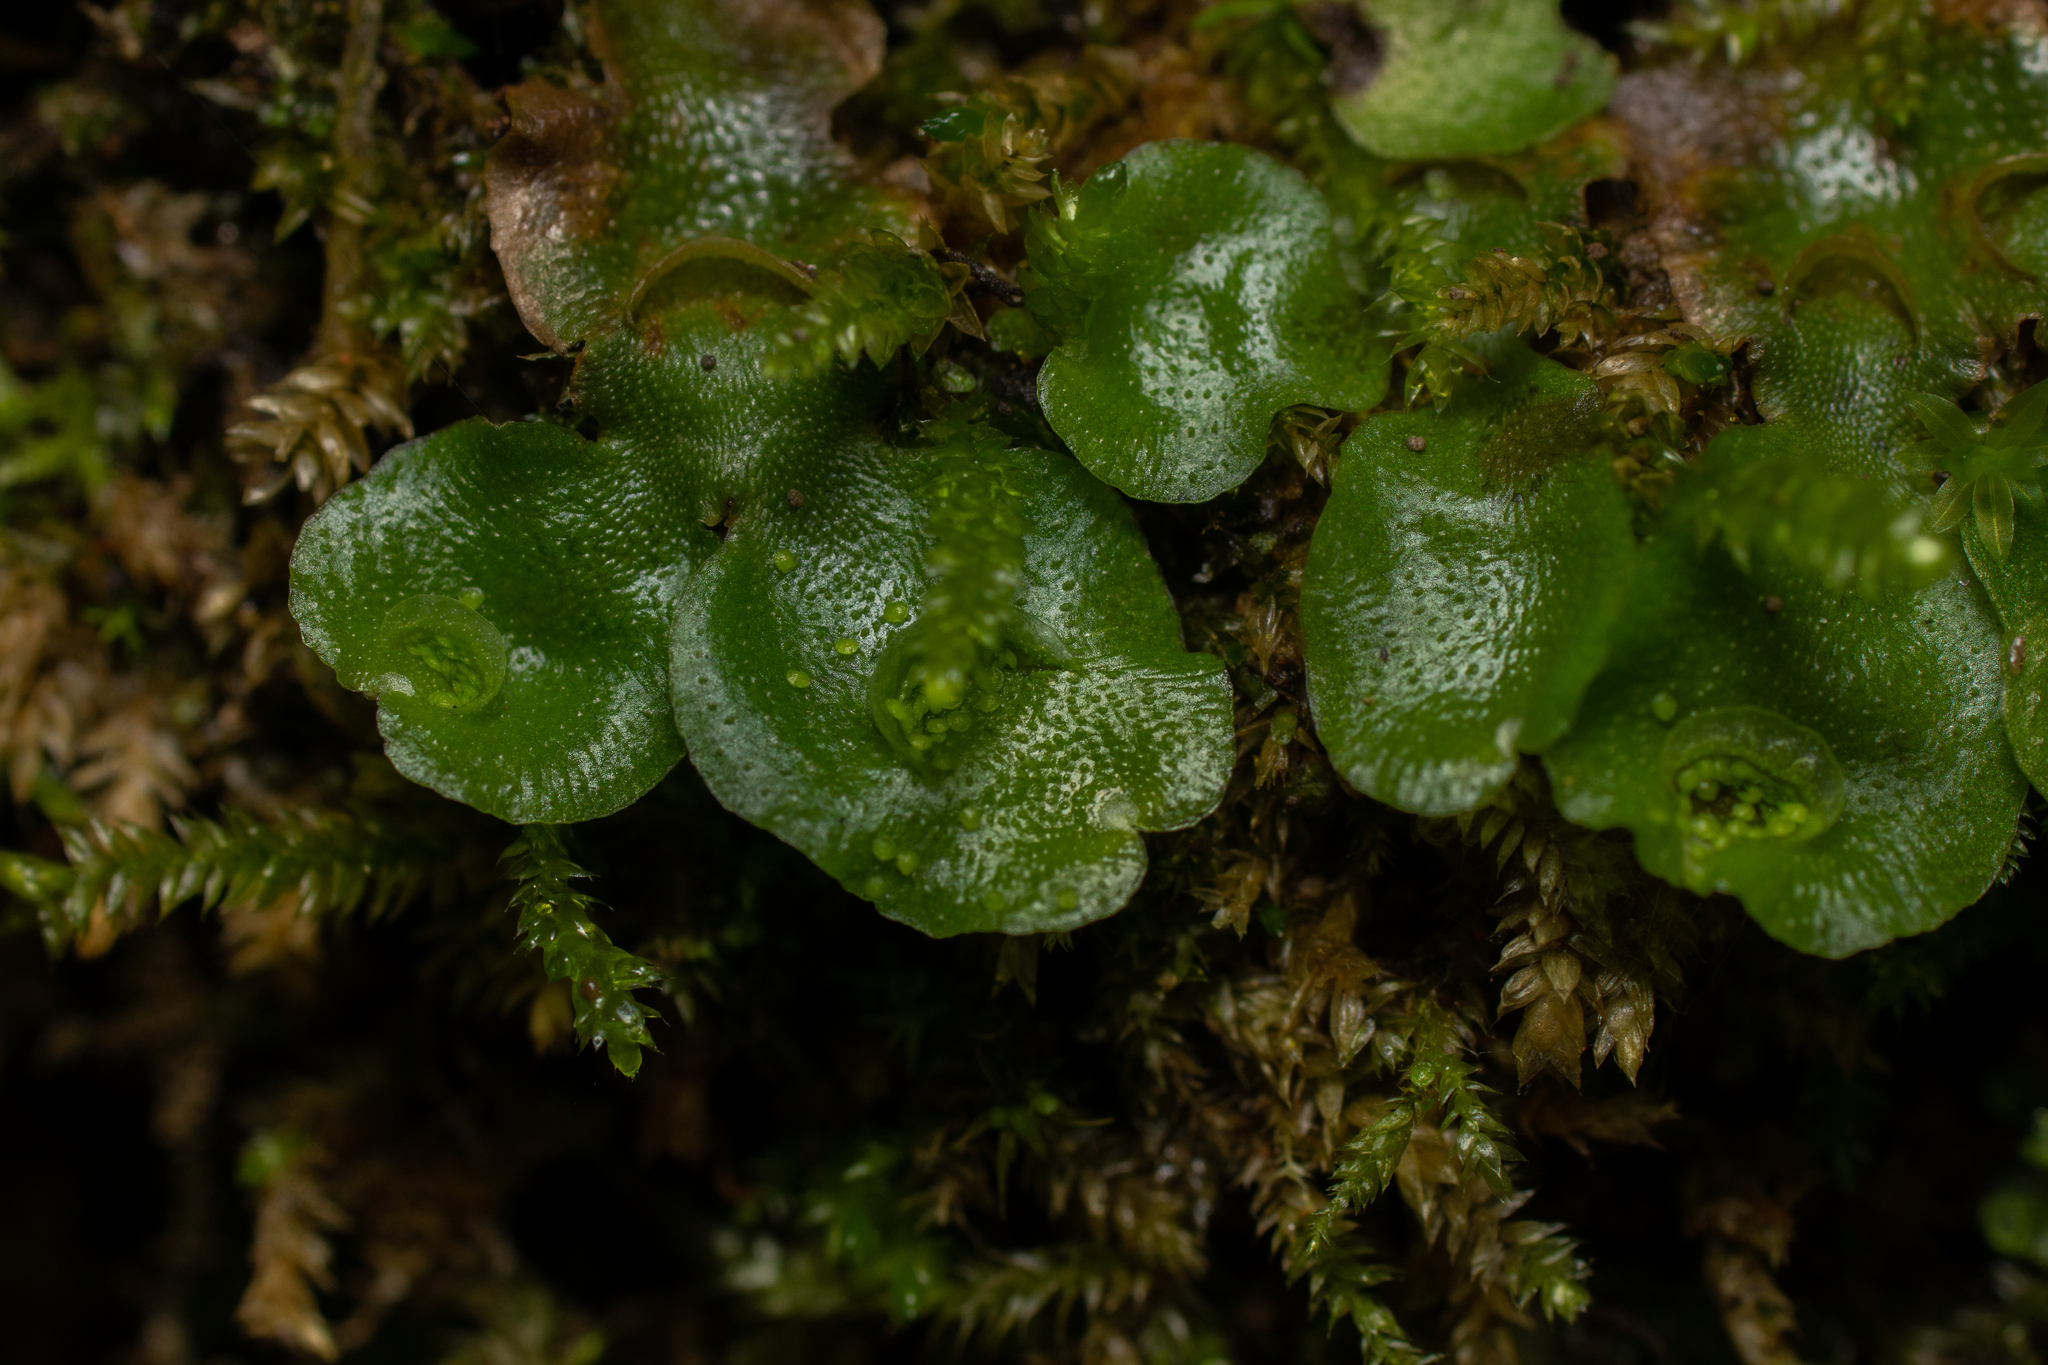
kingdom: Plantae
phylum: Marchantiophyta
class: Marchantiopsida
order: Lunulariales
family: Lunulariaceae
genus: Lunularia
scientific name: Lunularia cruciata
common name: Crescent-cup liverwort
